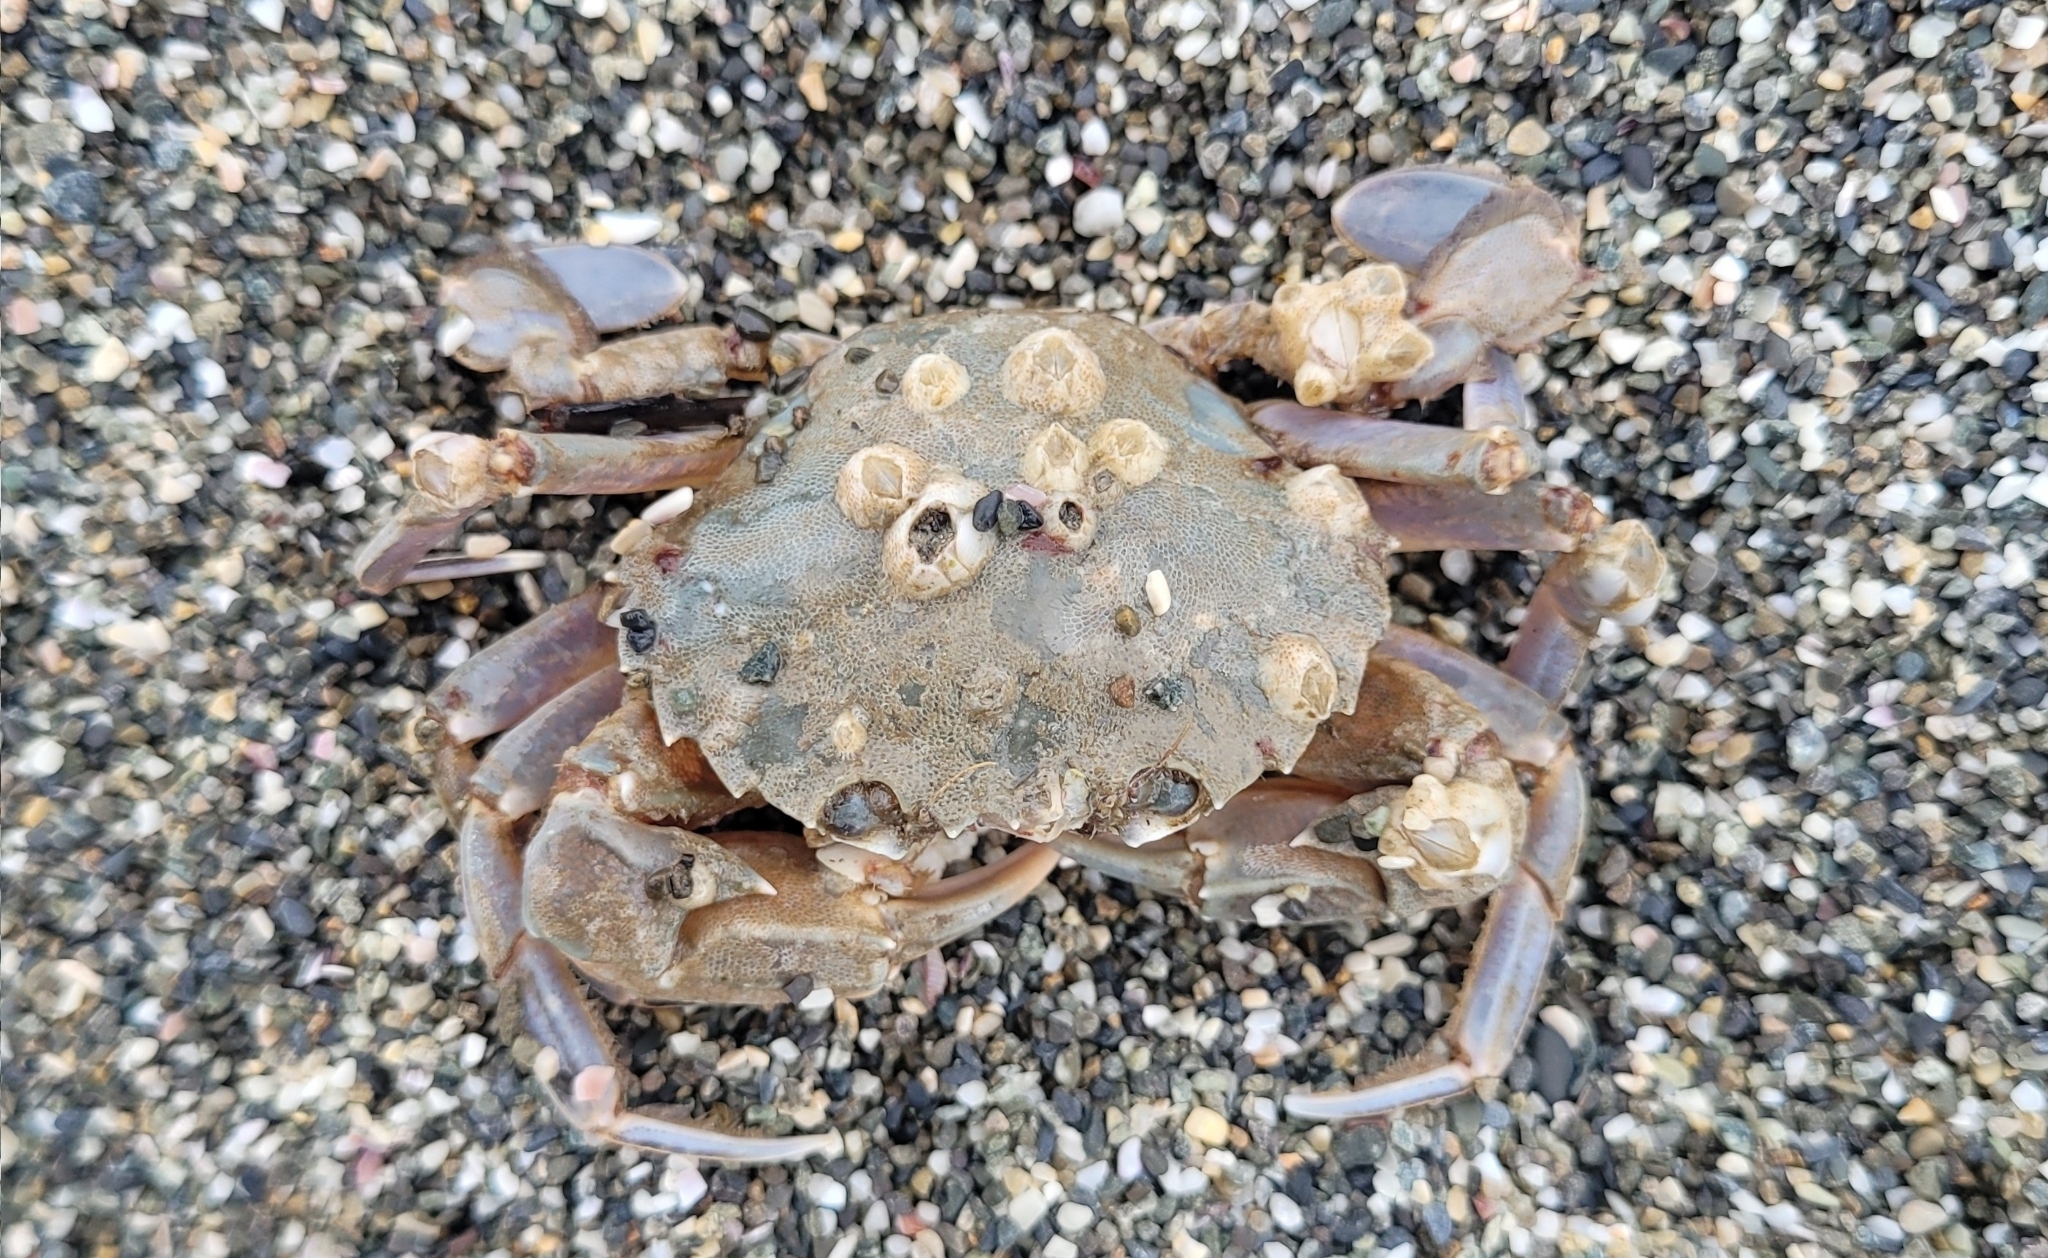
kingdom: Animalia
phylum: Arthropoda
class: Malacostraca
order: Decapoda
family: Polybiidae
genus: Liocarcinus
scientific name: Liocarcinus vernalis
